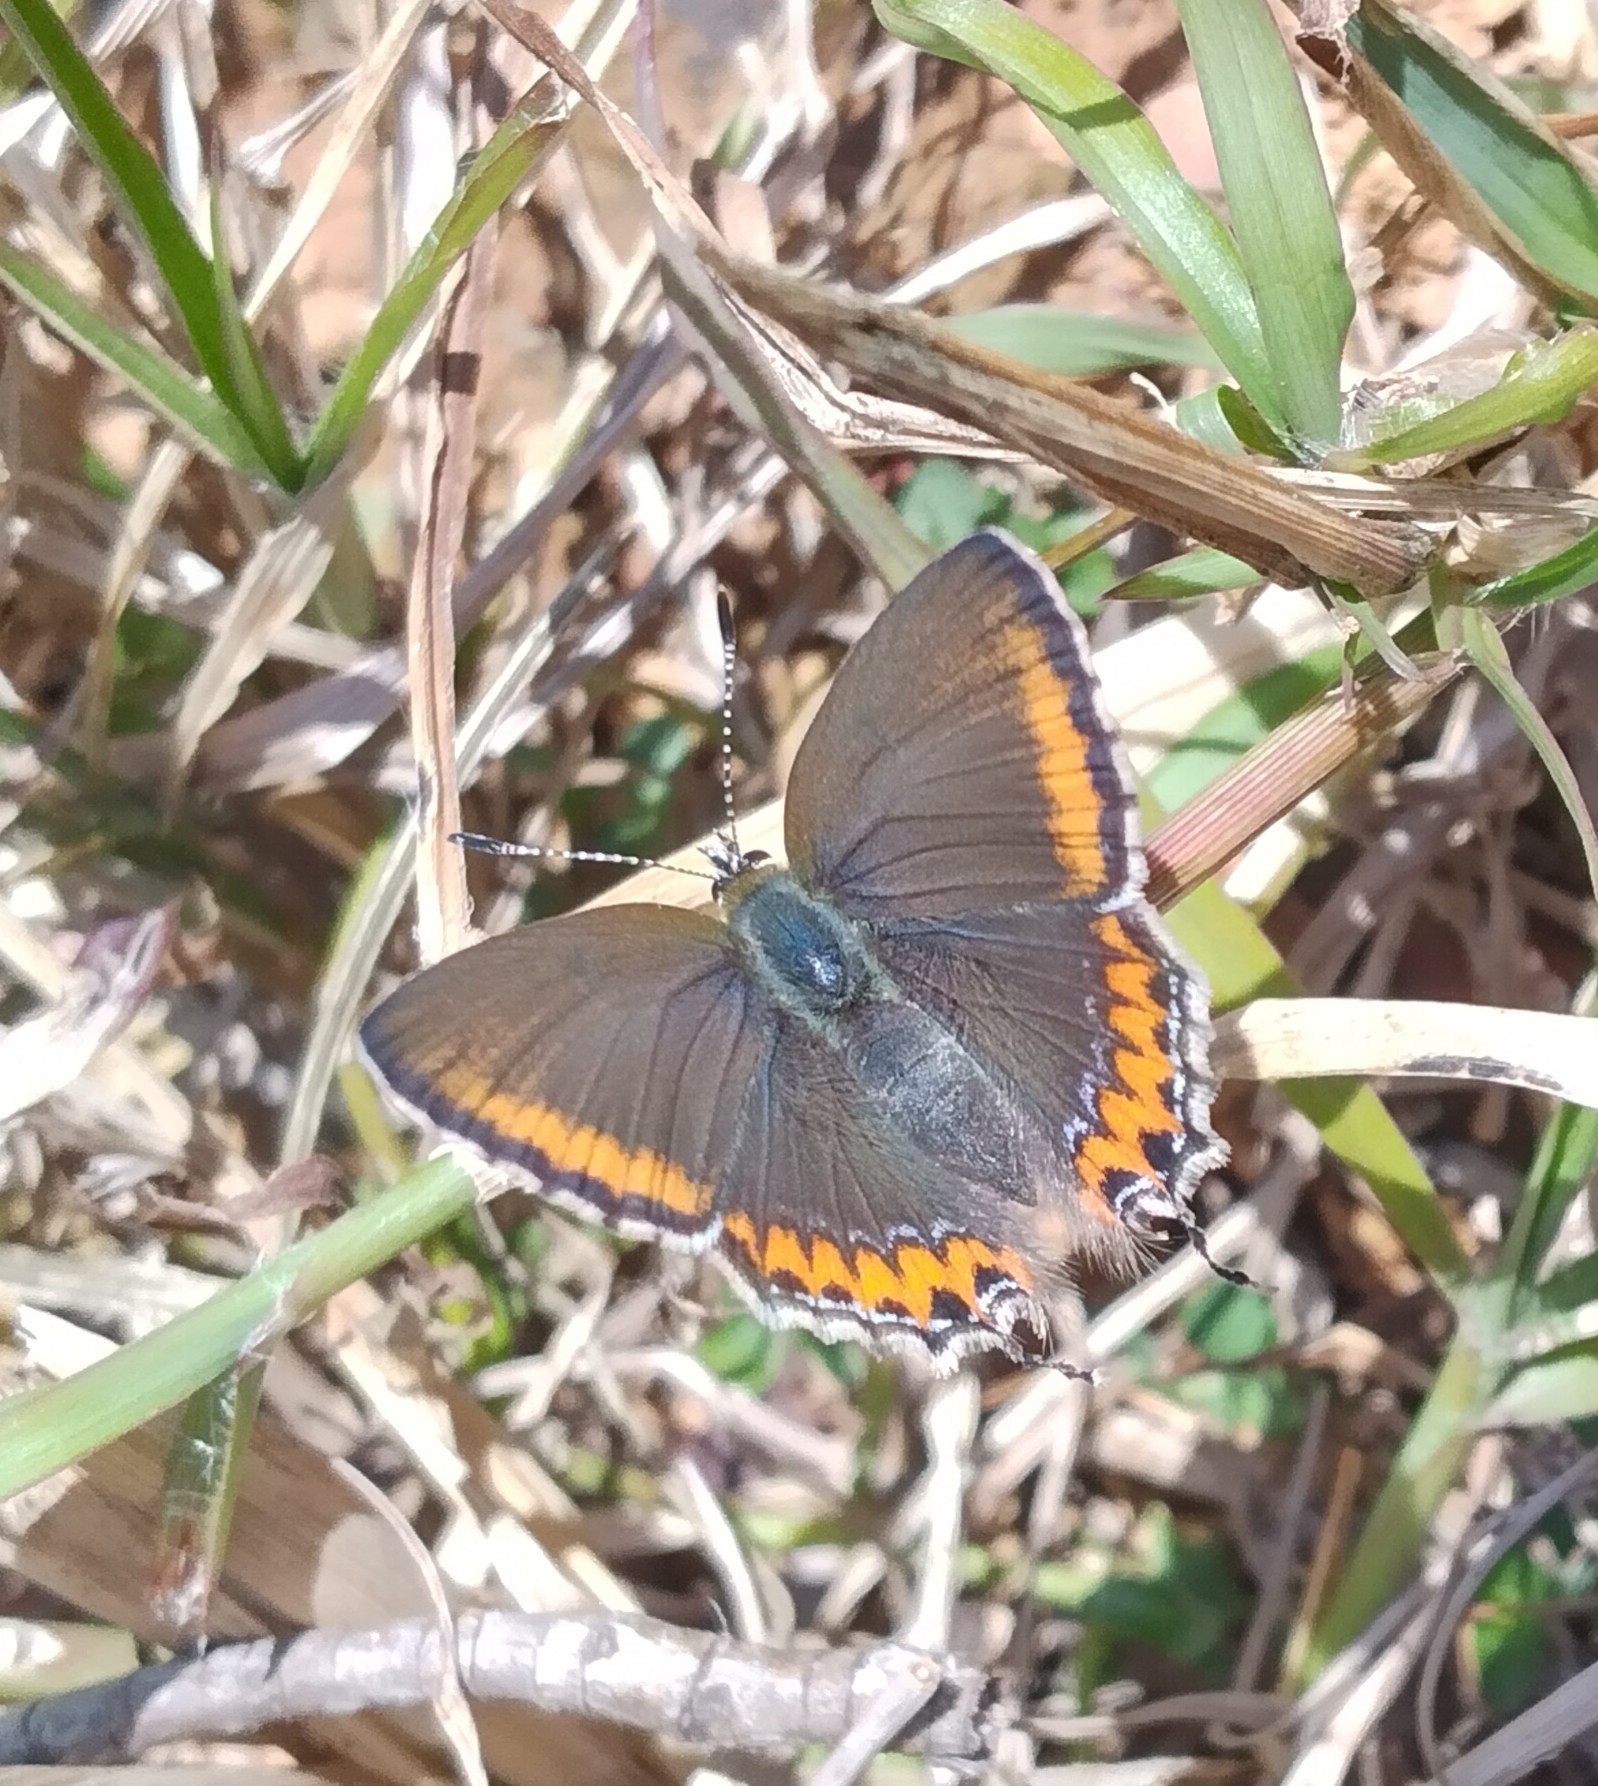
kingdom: Animalia
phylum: Arthropoda
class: Insecta
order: Lepidoptera
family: Lycaenidae
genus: Heliophorus
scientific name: Heliophorus sena
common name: Sorrel sapphire
